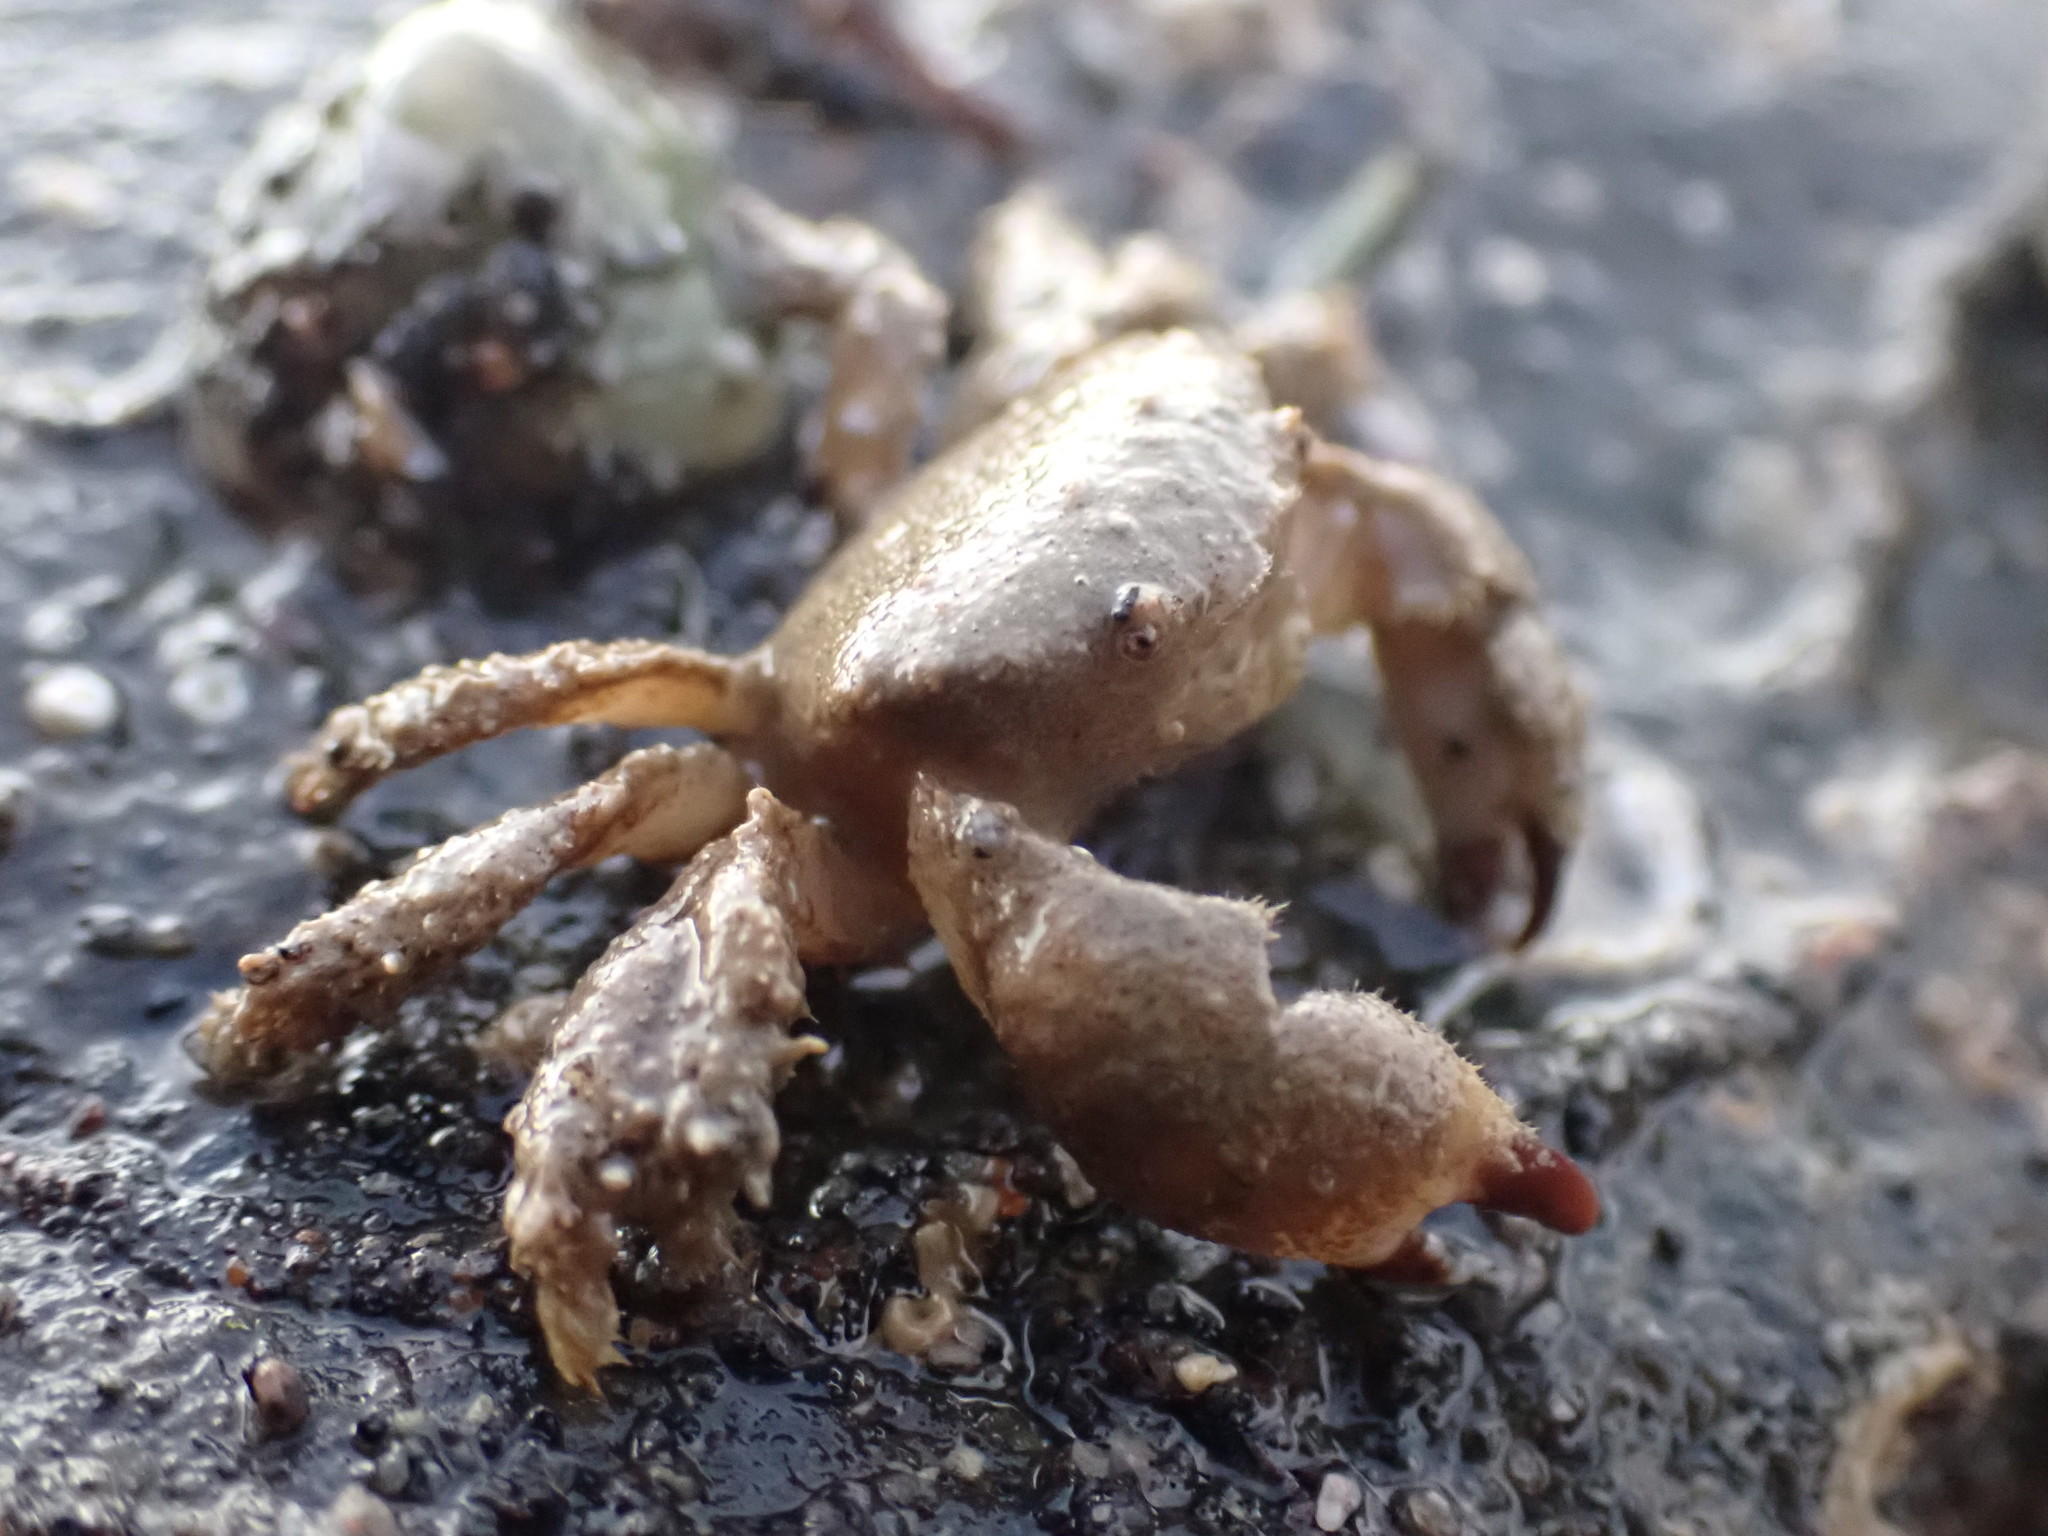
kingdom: Animalia
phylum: Arthropoda
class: Malacostraca
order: Decapoda
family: Pilumnidae
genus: Pilumnus
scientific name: Pilumnus lumpinus
